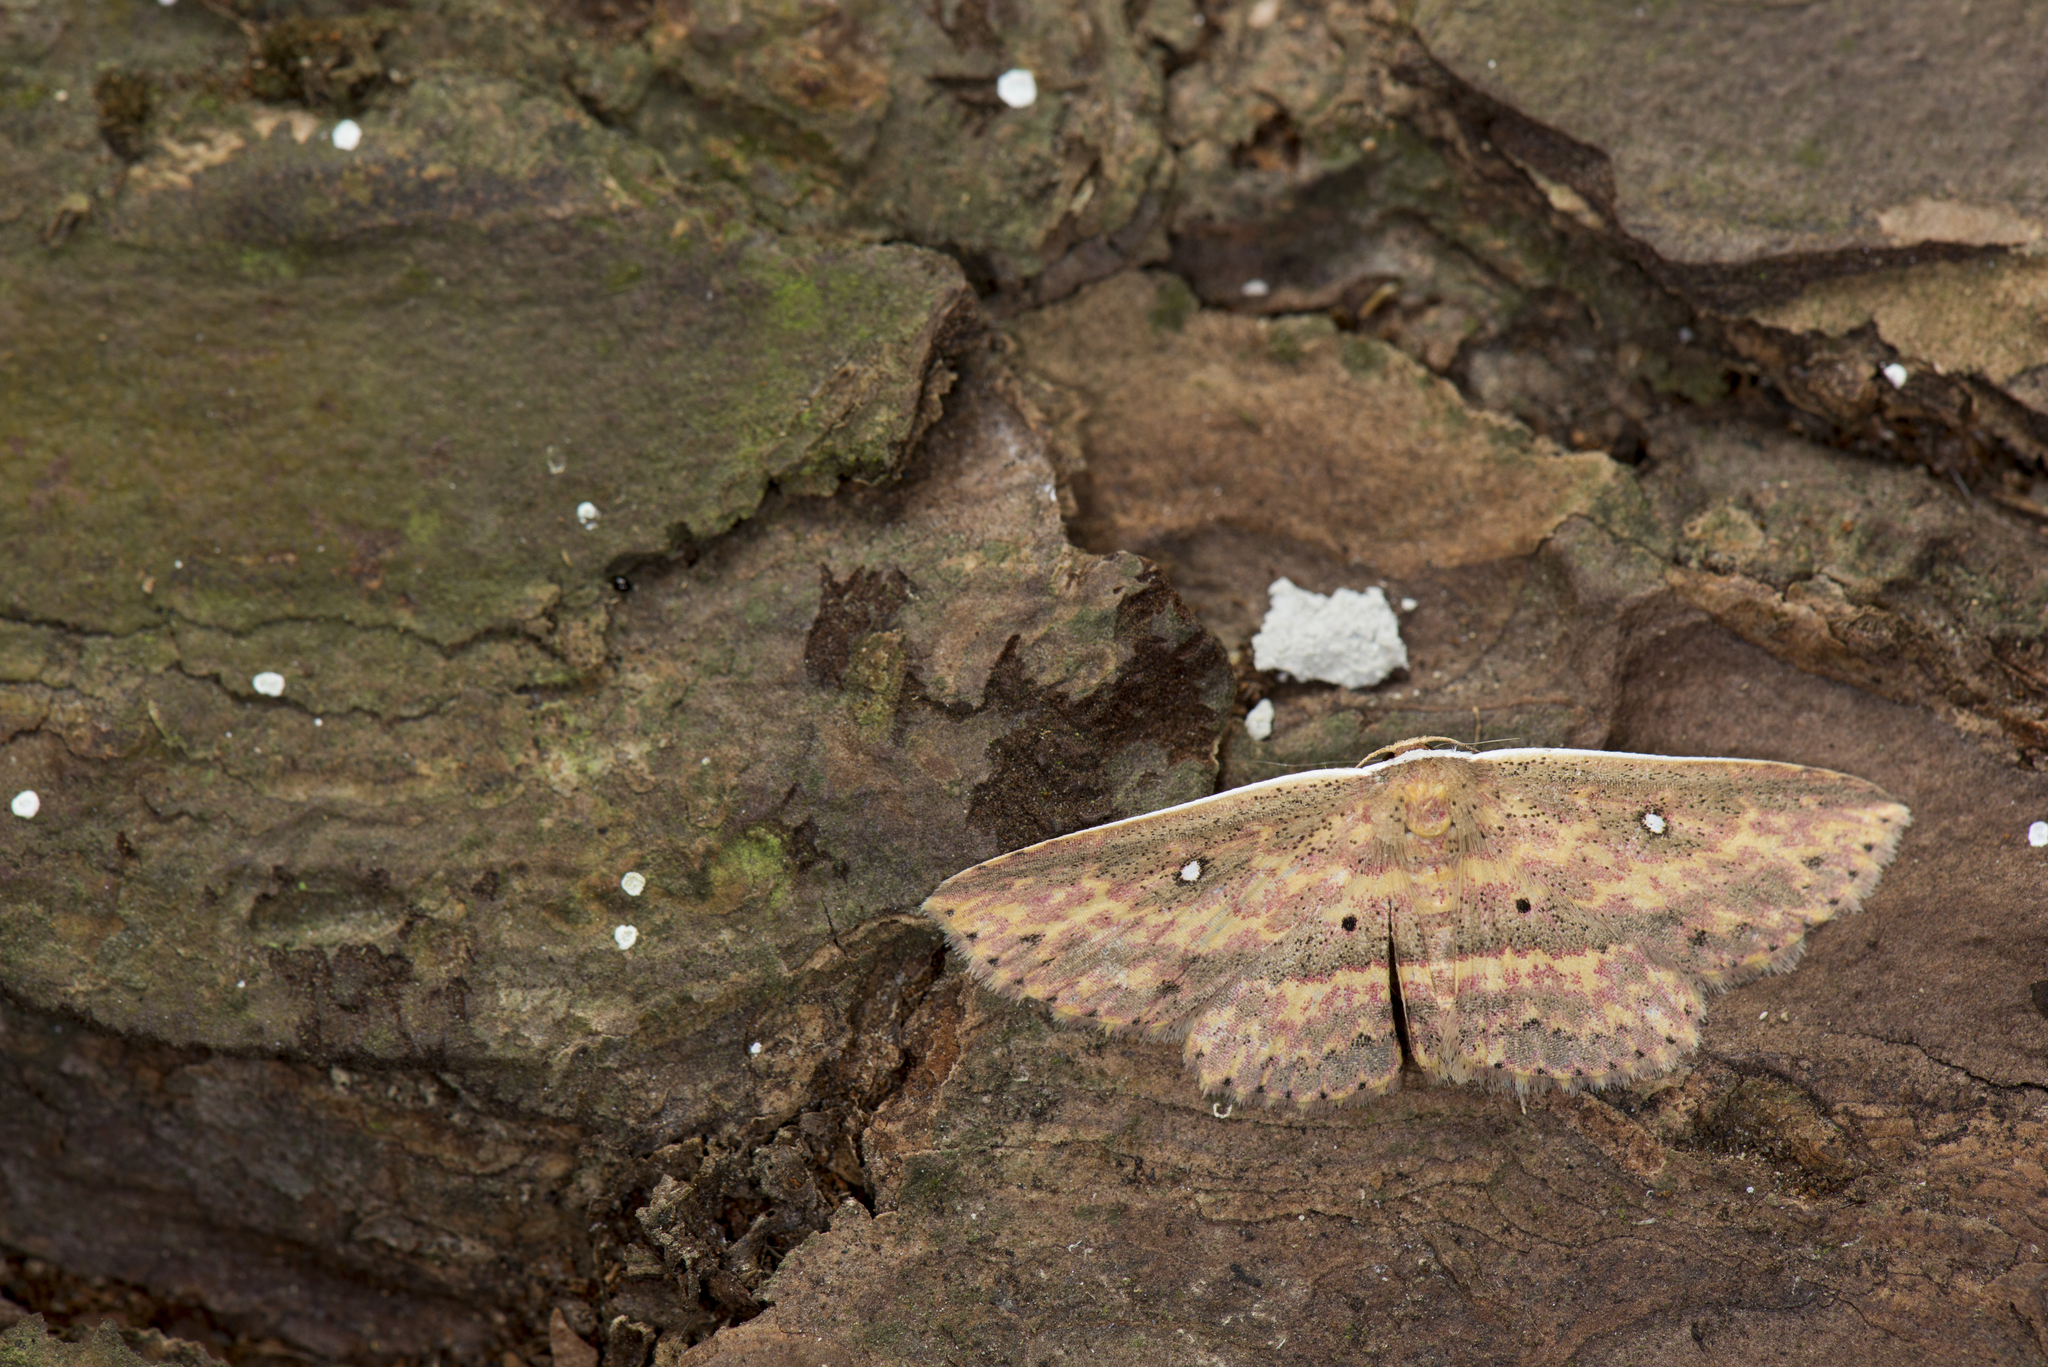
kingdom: Animalia
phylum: Arthropoda
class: Insecta
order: Lepidoptera
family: Noctuidae
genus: Hyposada
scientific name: Hyposada fasciosa
